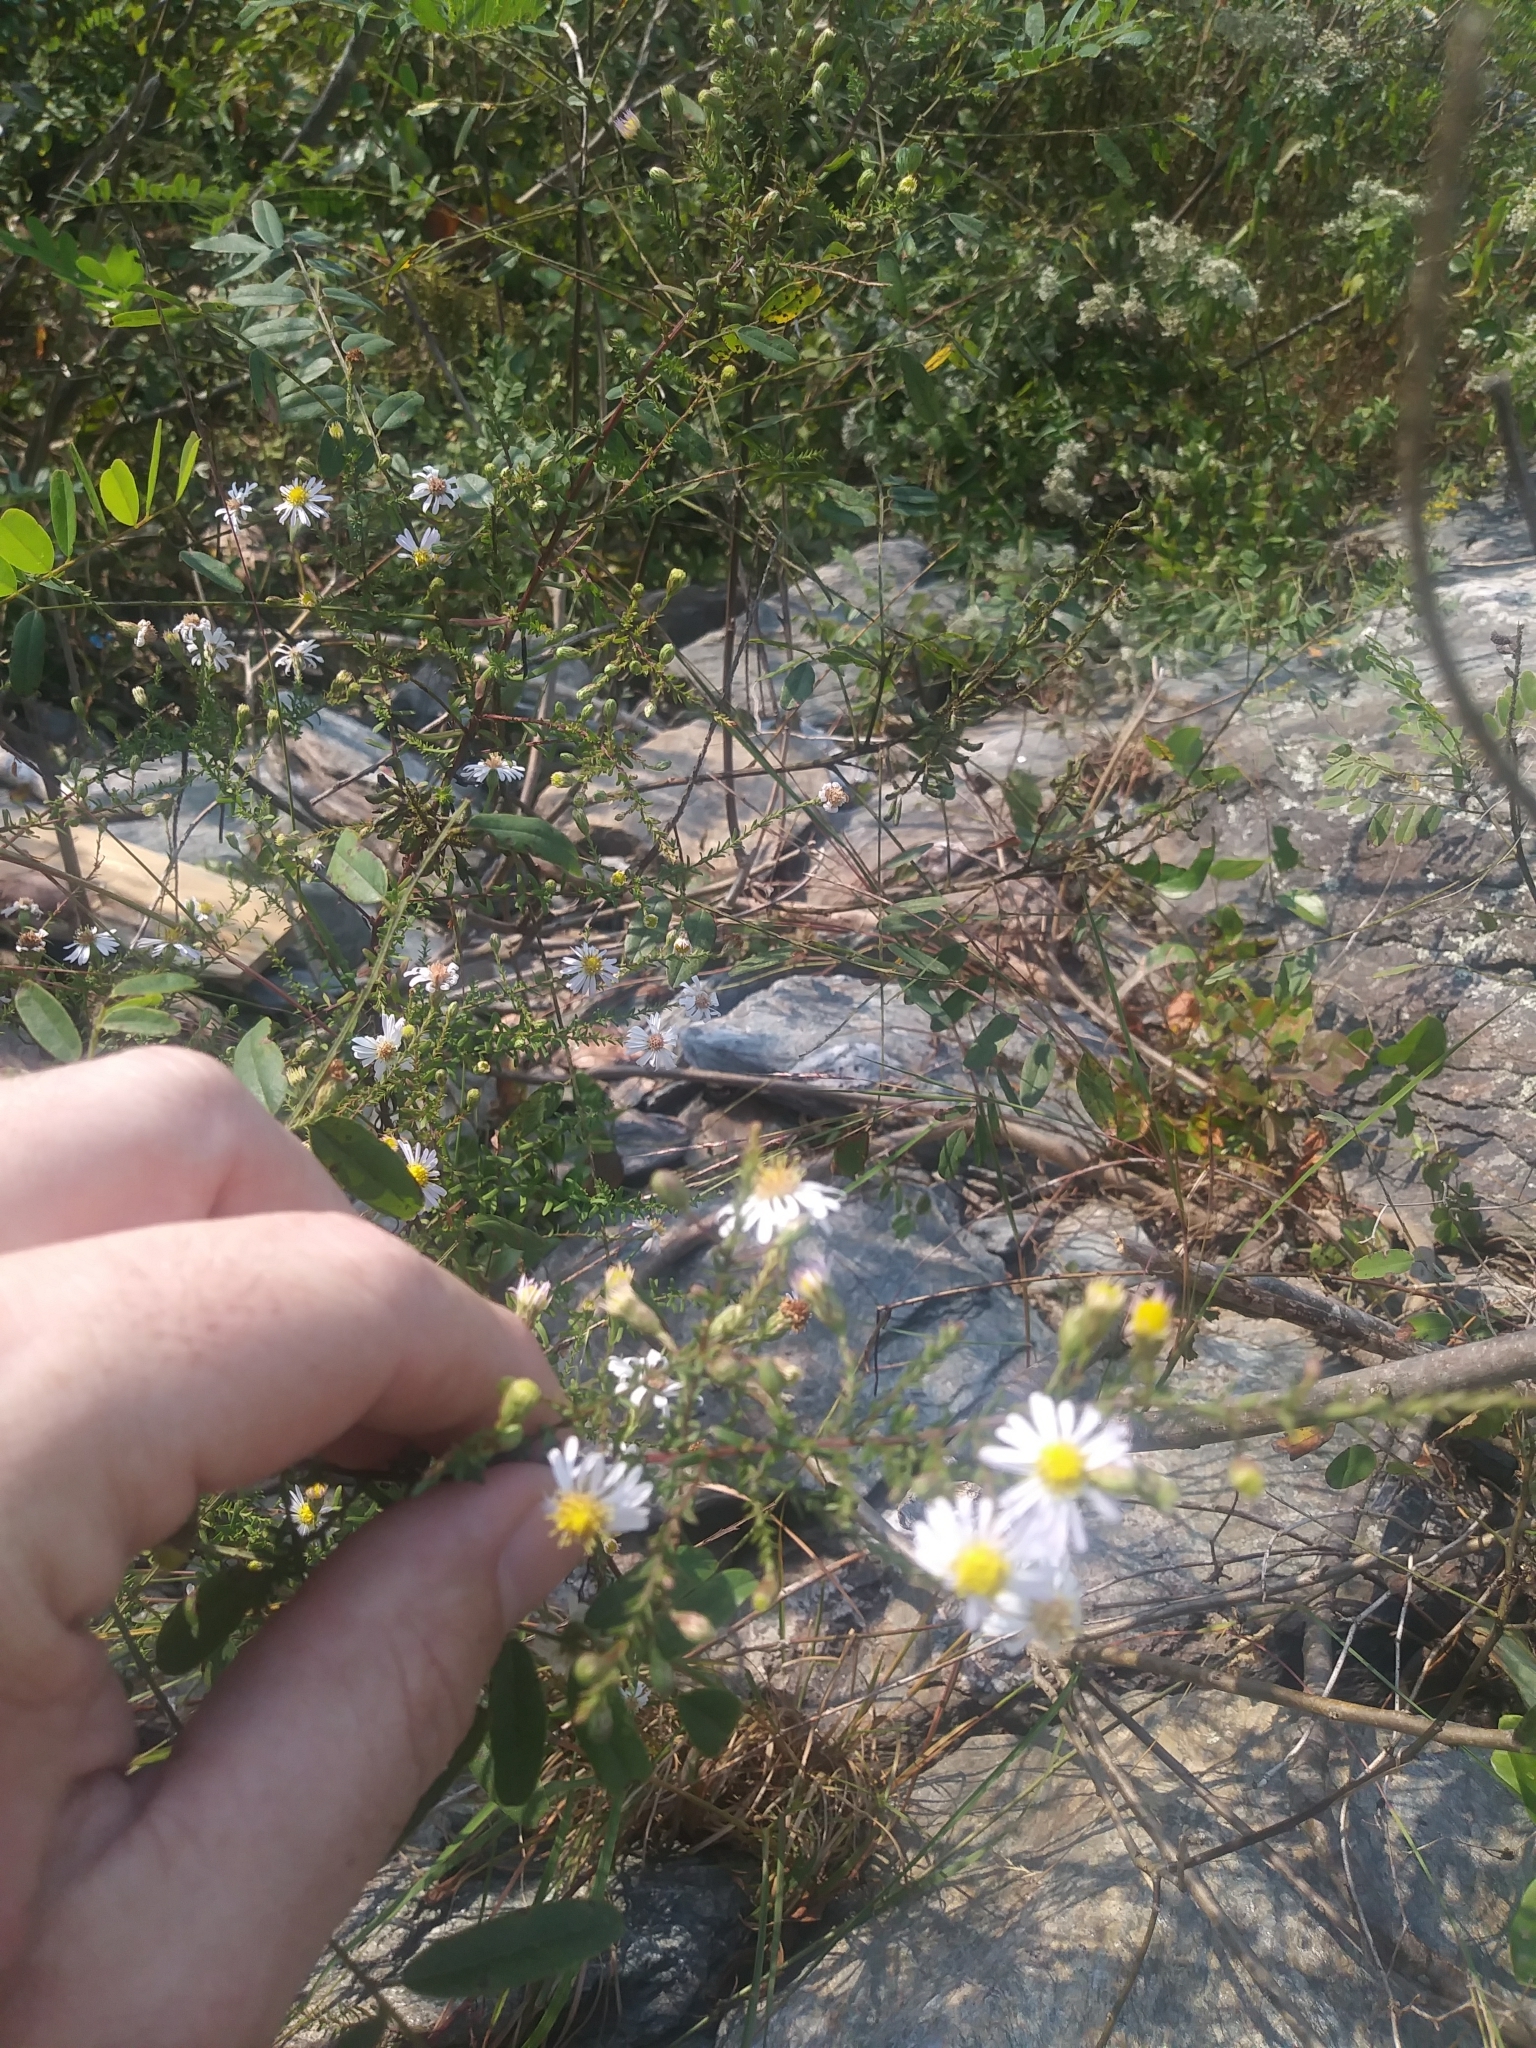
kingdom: Plantae
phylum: Tracheophyta
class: Magnoliopsida
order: Asterales
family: Asteraceae
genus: Symphyotrichum
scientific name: Symphyotrichum dumosum
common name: Bushy aster
